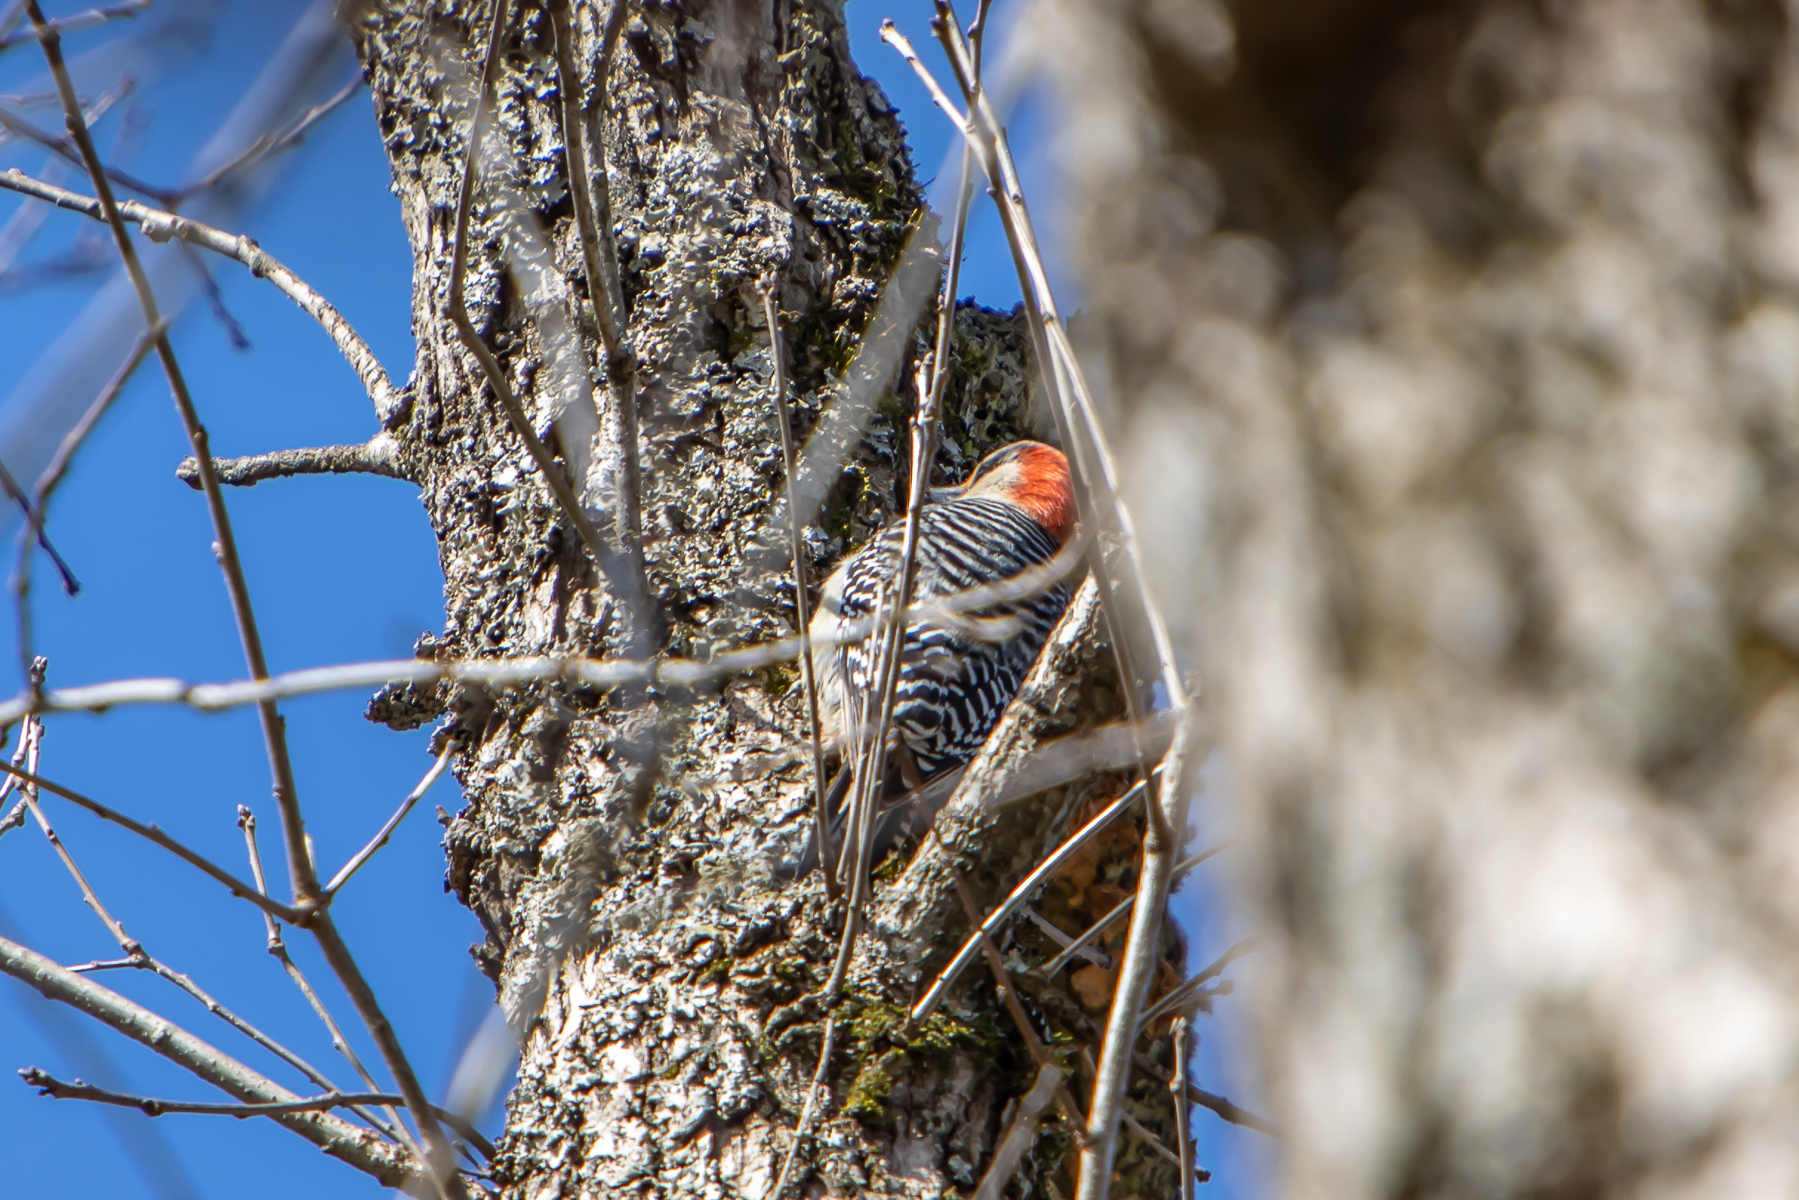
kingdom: Animalia
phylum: Chordata
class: Aves
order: Piciformes
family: Picidae
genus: Melanerpes
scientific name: Melanerpes carolinus
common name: Red-bellied woodpecker
